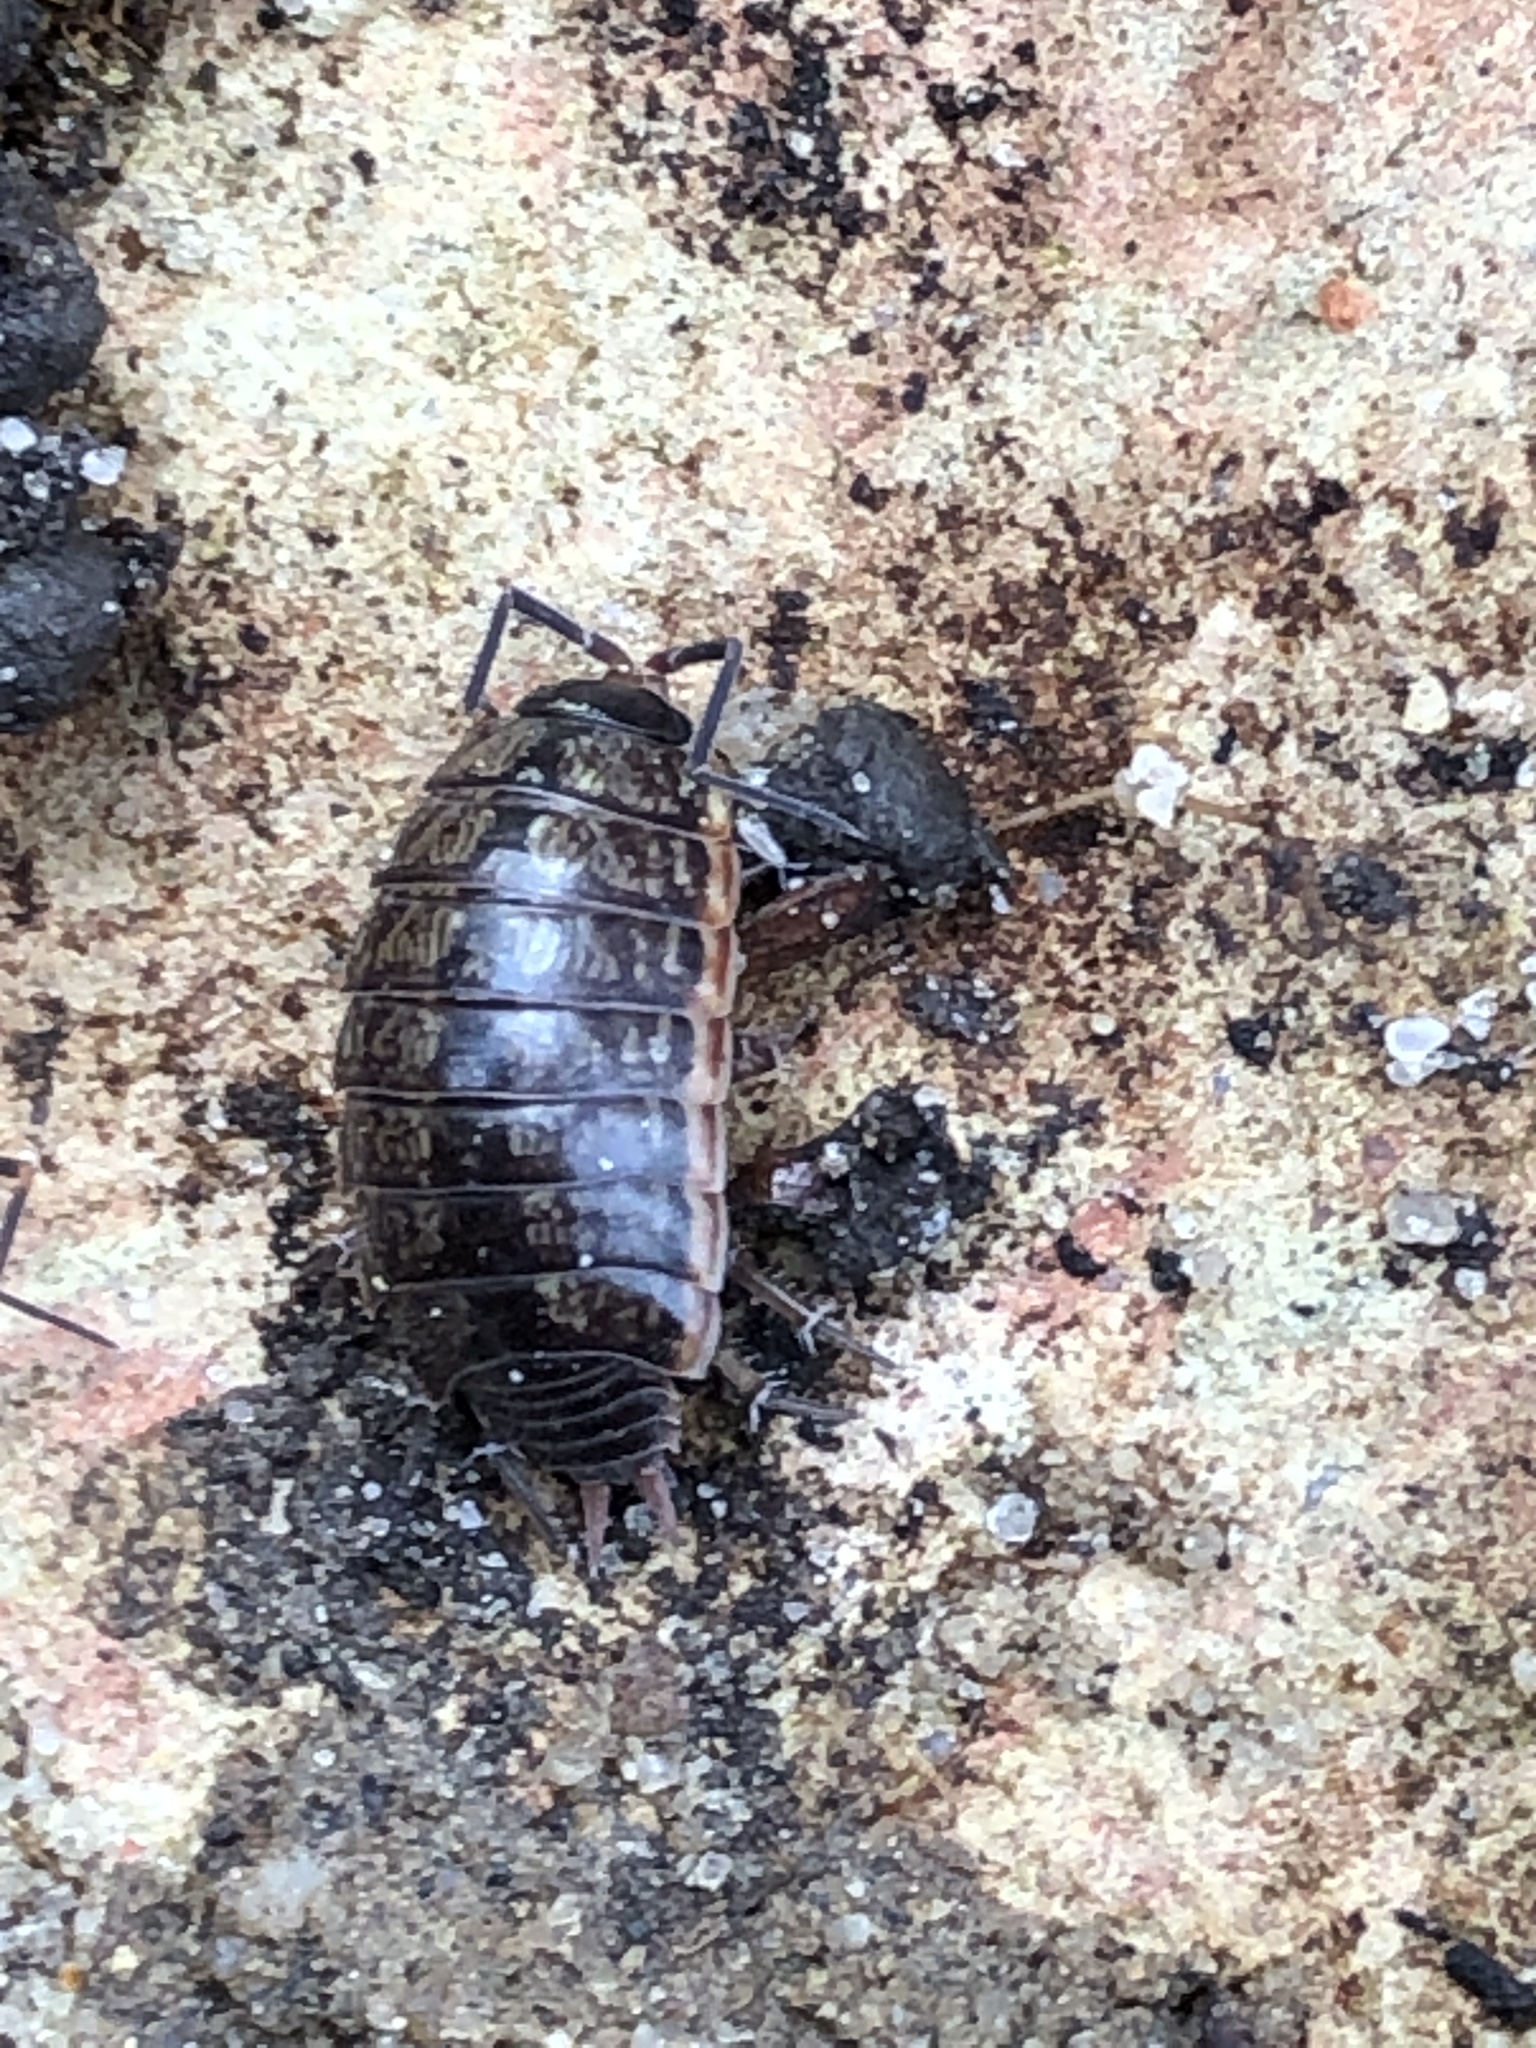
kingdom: Animalia
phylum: Arthropoda
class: Malacostraca
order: Isopoda
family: Philosciidae
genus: Philoscia
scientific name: Philoscia muscorum
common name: Common striped woodlouse
